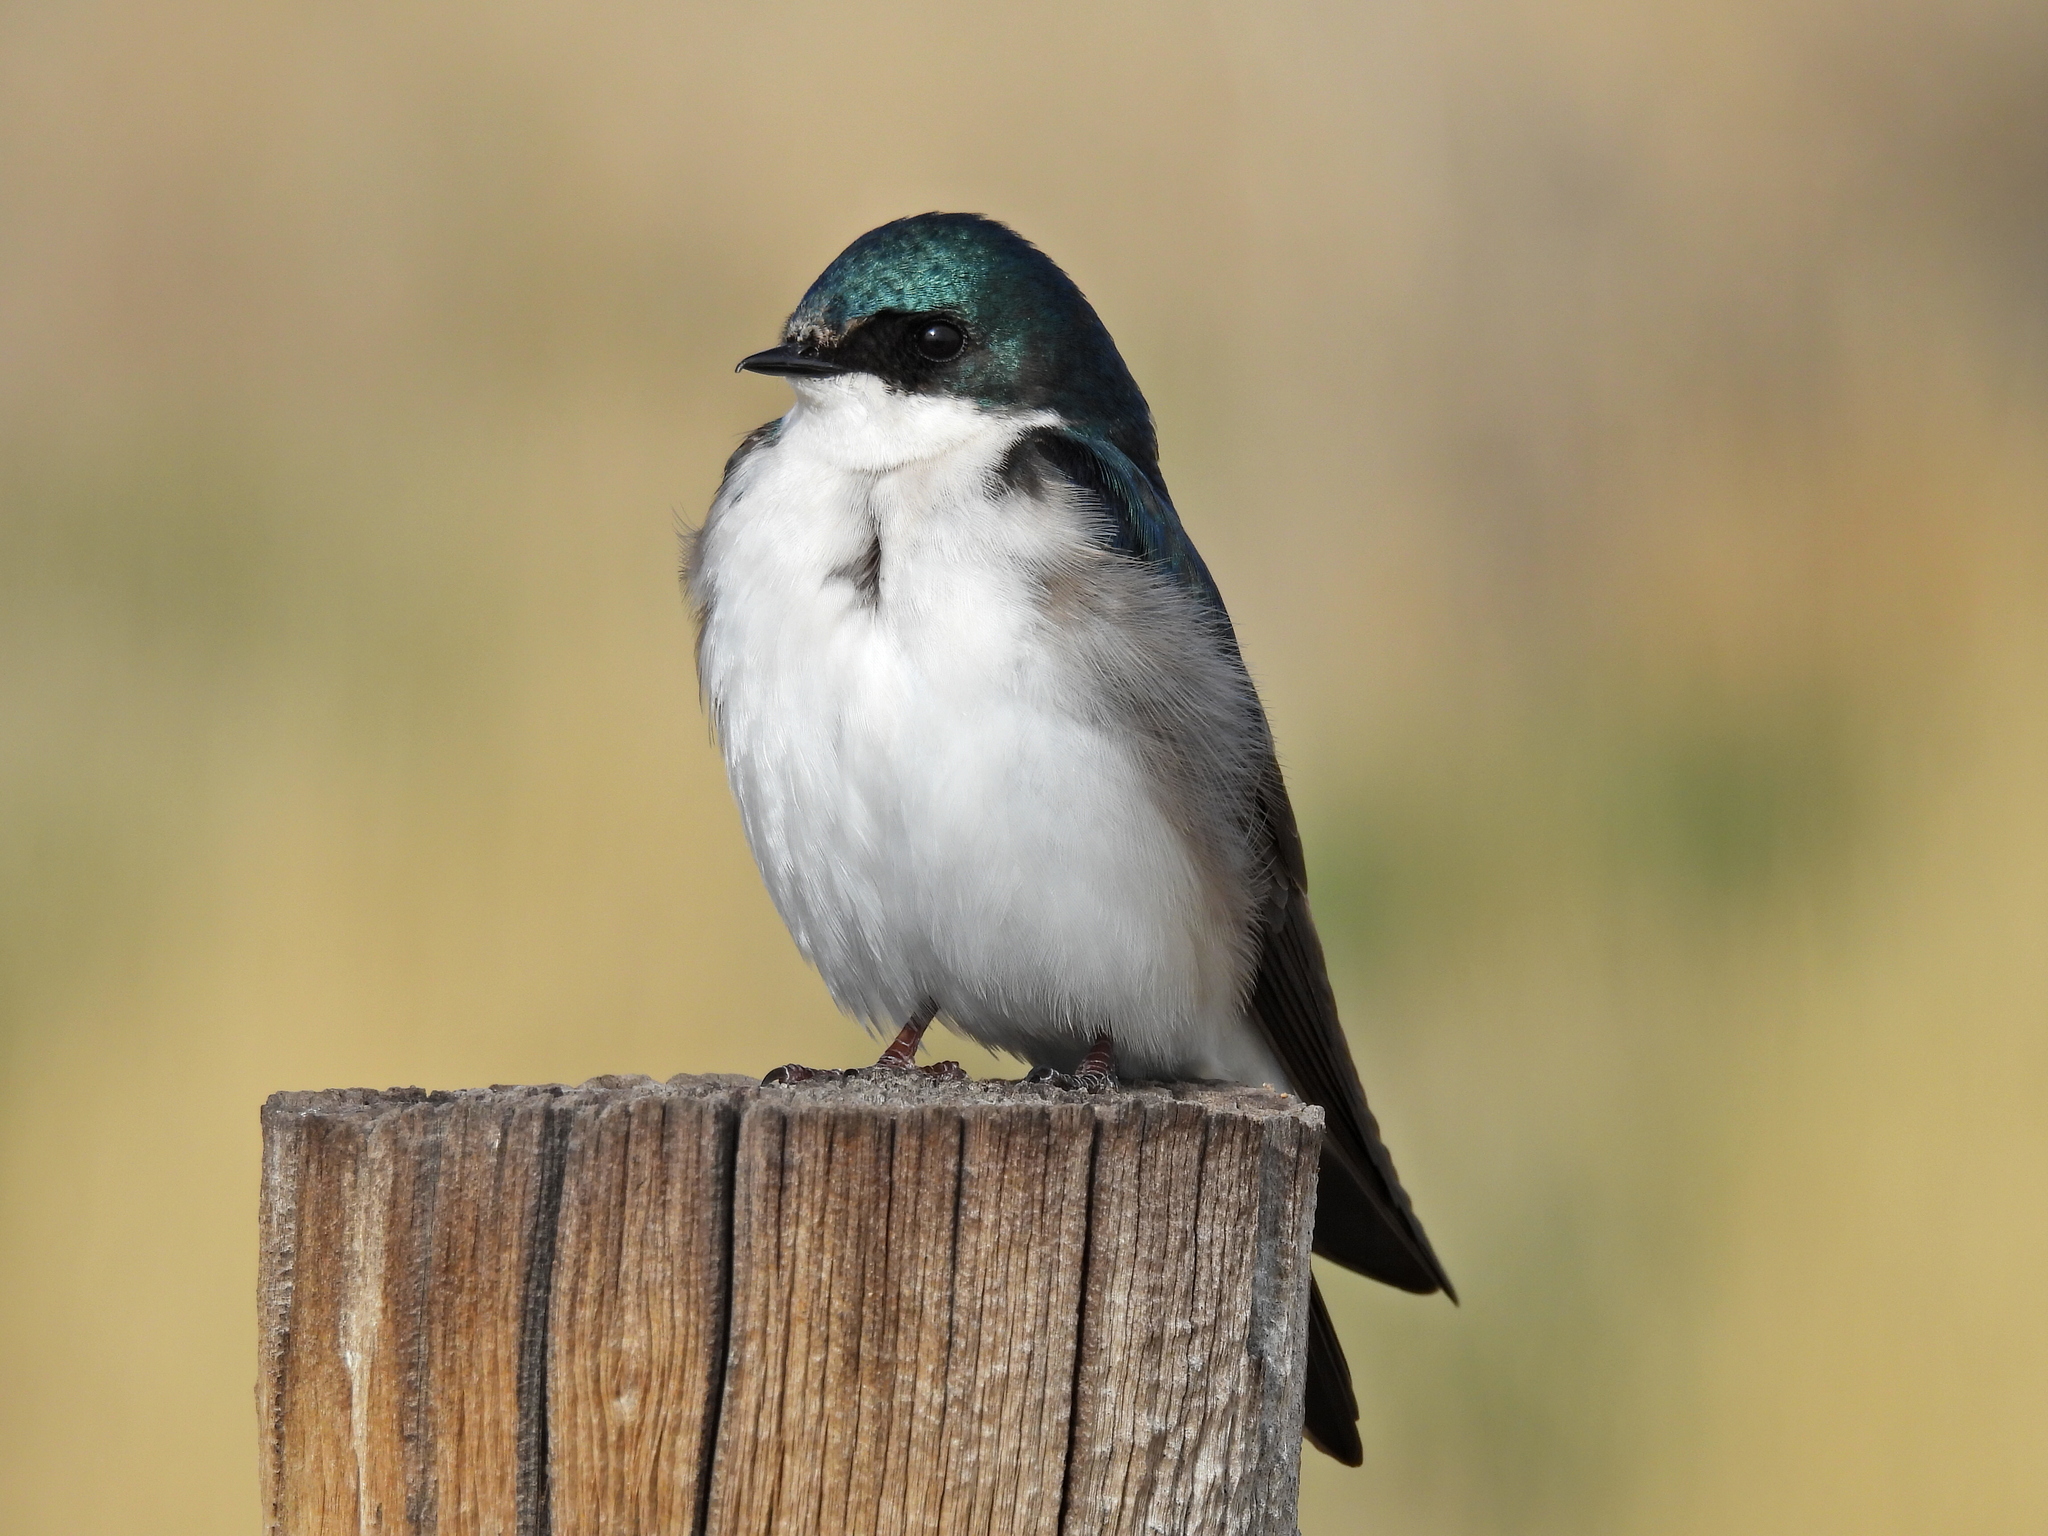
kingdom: Animalia
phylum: Chordata
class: Aves
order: Passeriformes
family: Hirundinidae
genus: Tachycineta
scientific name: Tachycineta bicolor
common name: Tree swallow
